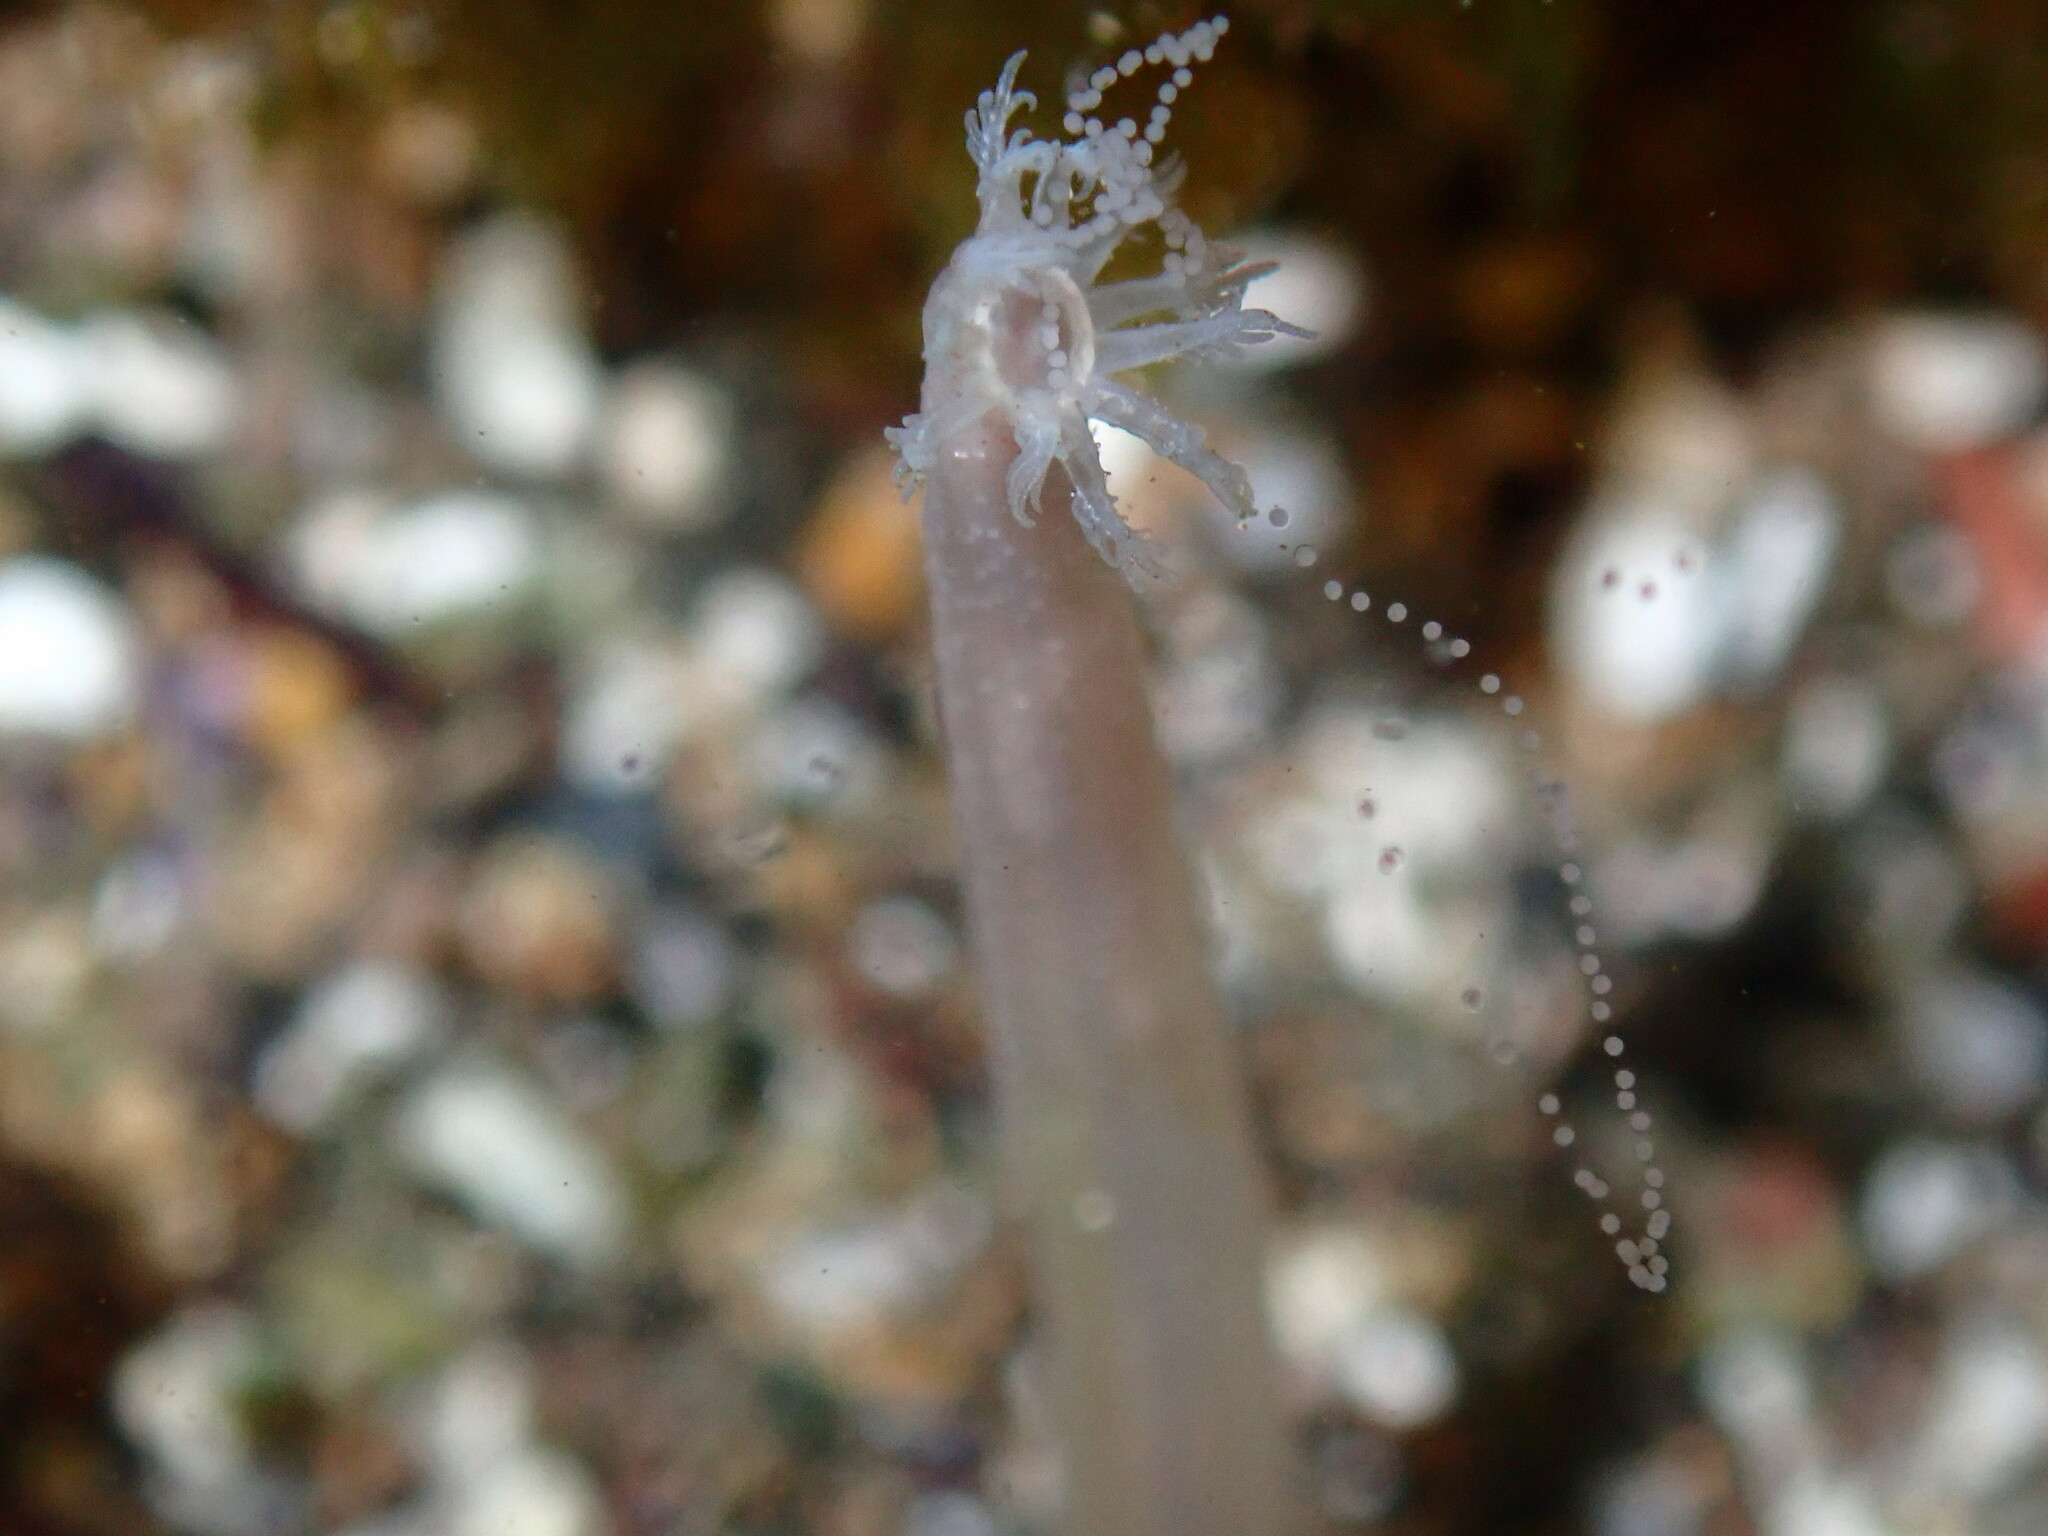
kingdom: Animalia
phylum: Echinodermata
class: Holothuroidea
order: Apodida
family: Synaptidae
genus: Leptosynapta
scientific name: Leptosynapta inhaerens
